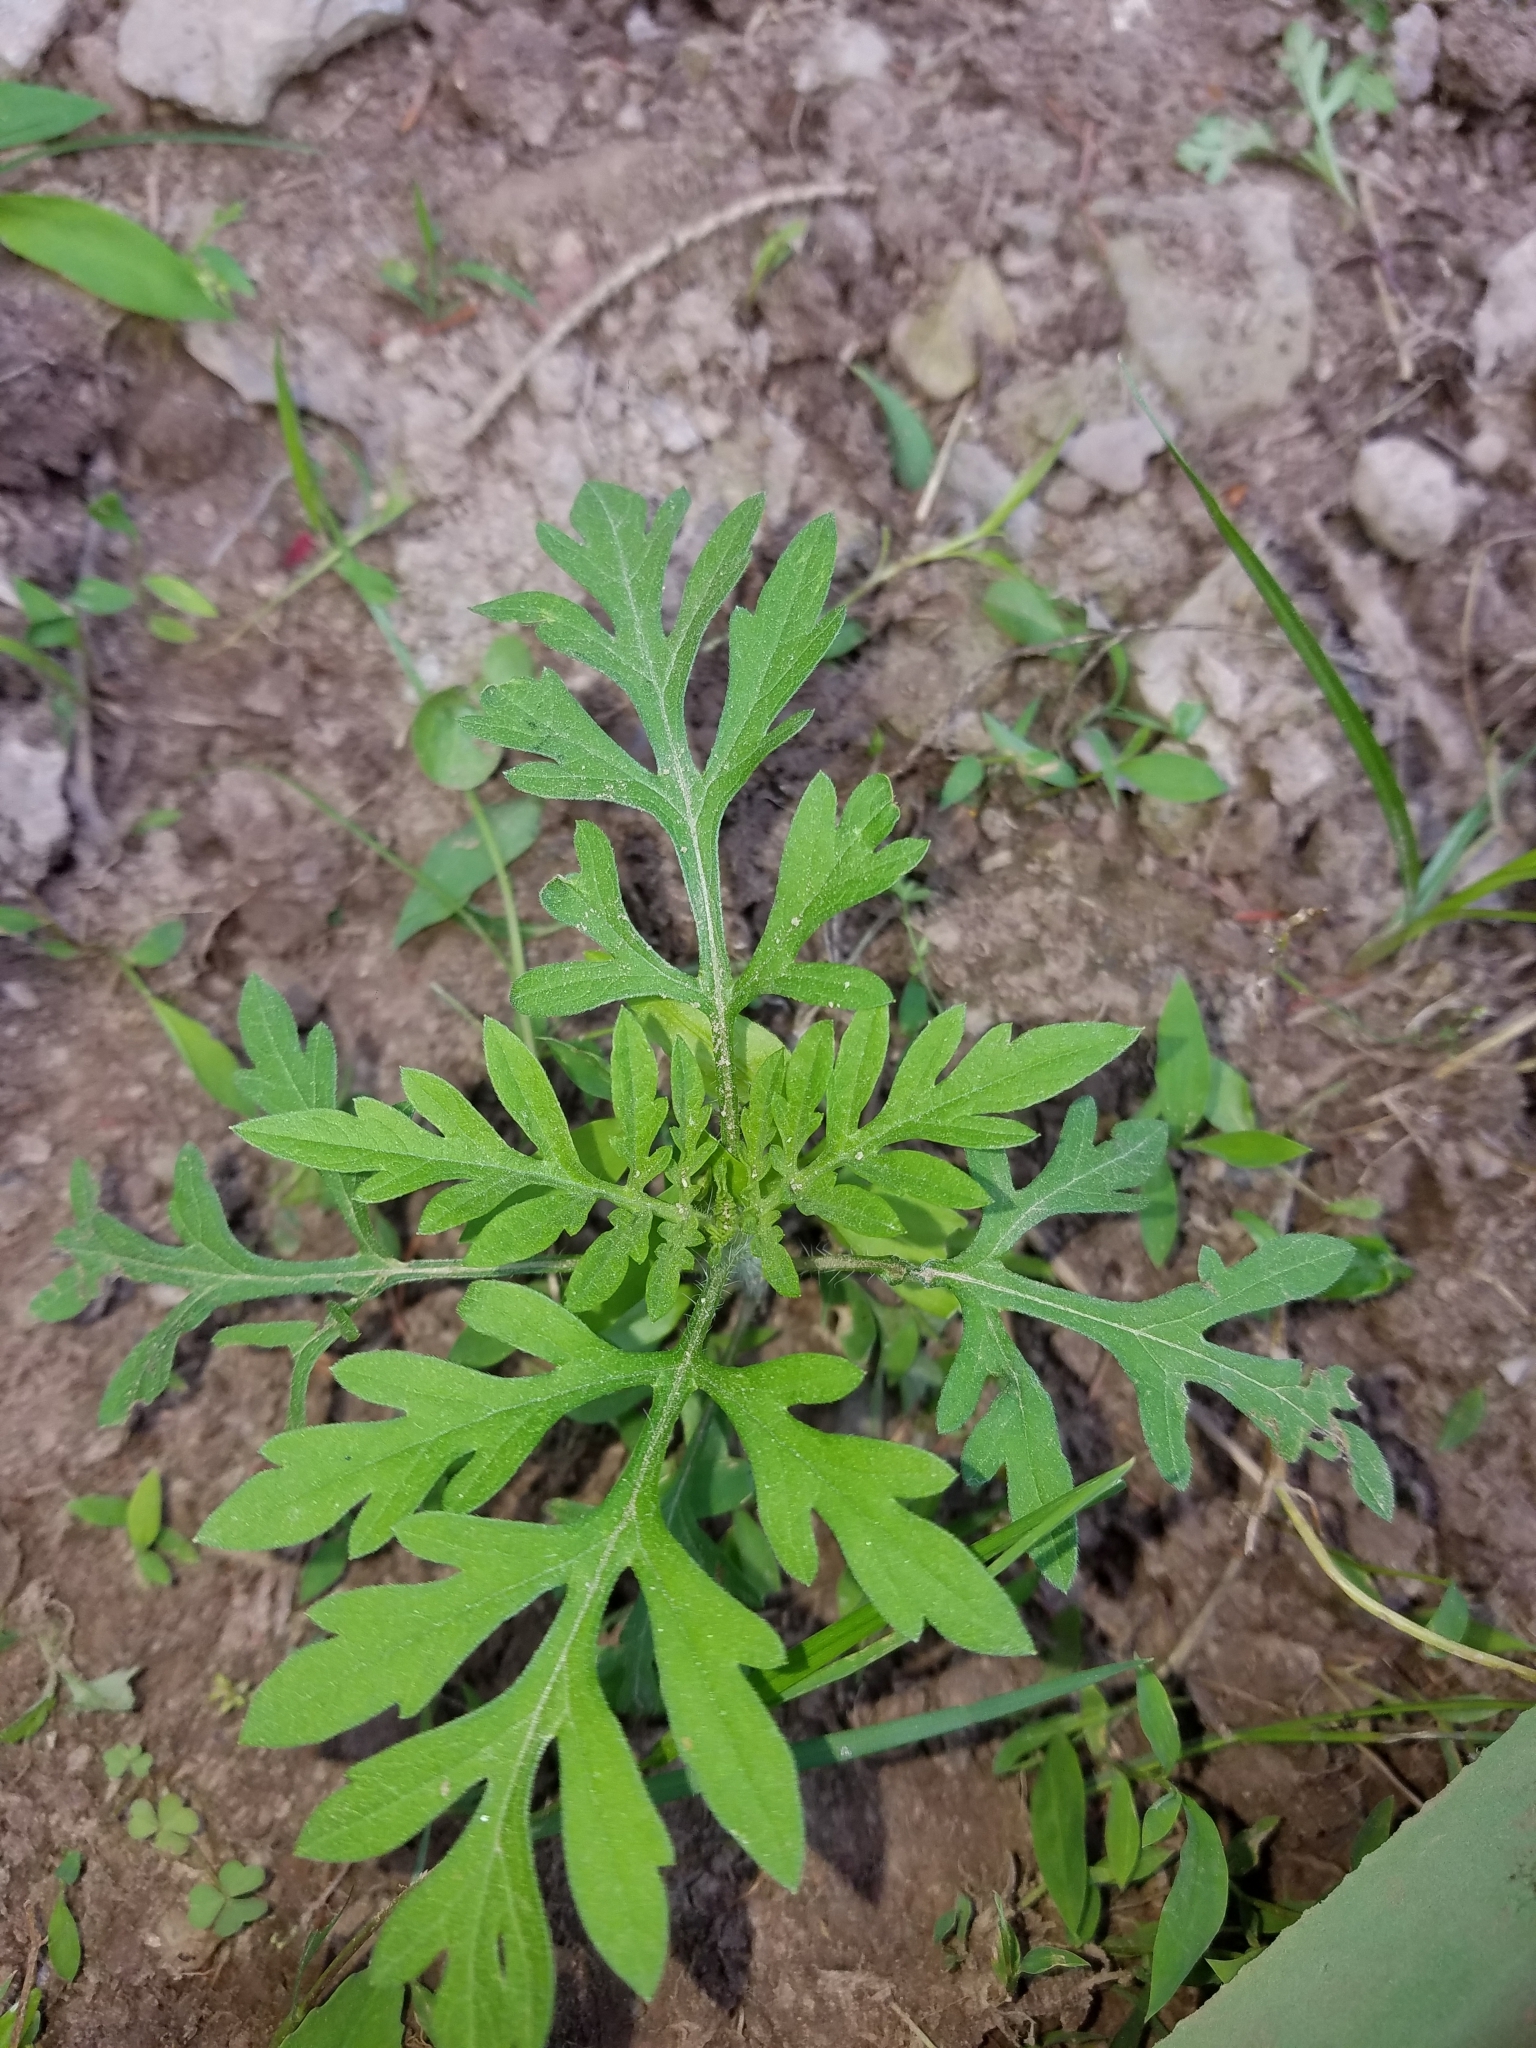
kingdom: Plantae
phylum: Tracheophyta
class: Magnoliopsida
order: Asterales
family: Asteraceae
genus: Ambrosia
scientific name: Ambrosia artemisiifolia
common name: Annual ragweed
